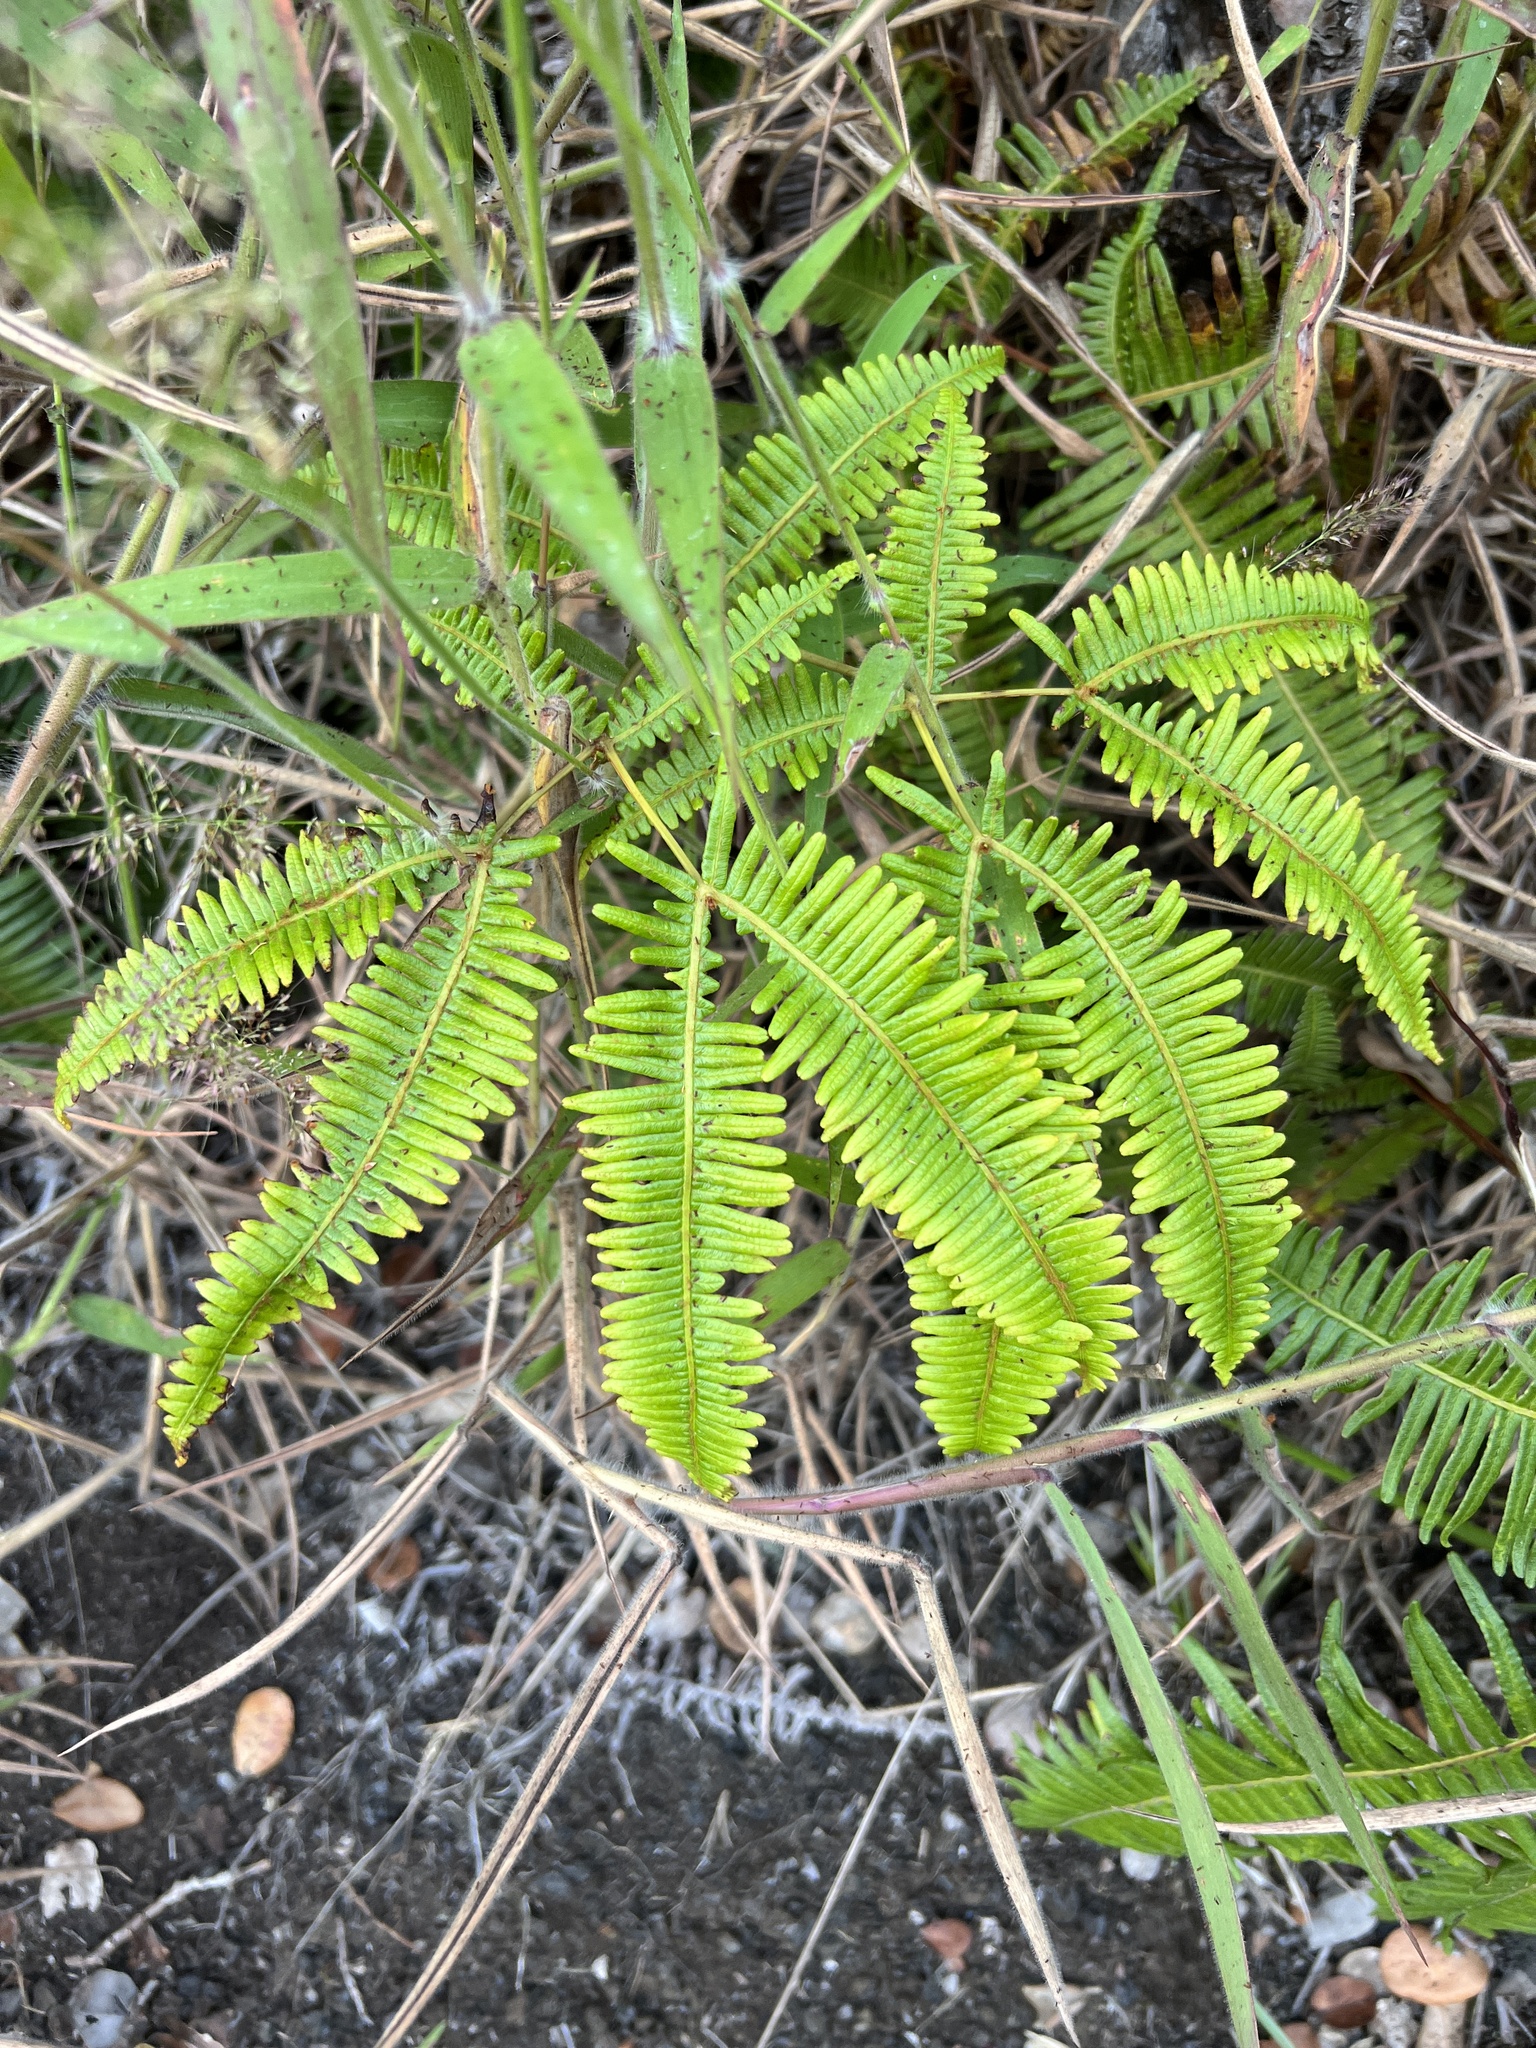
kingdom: Plantae
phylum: Tracheophyta
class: Polypodiopsida
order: Gleicheniales
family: Gleicheniaceae
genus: Dicranopteris
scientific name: Dicranopteris linearis
